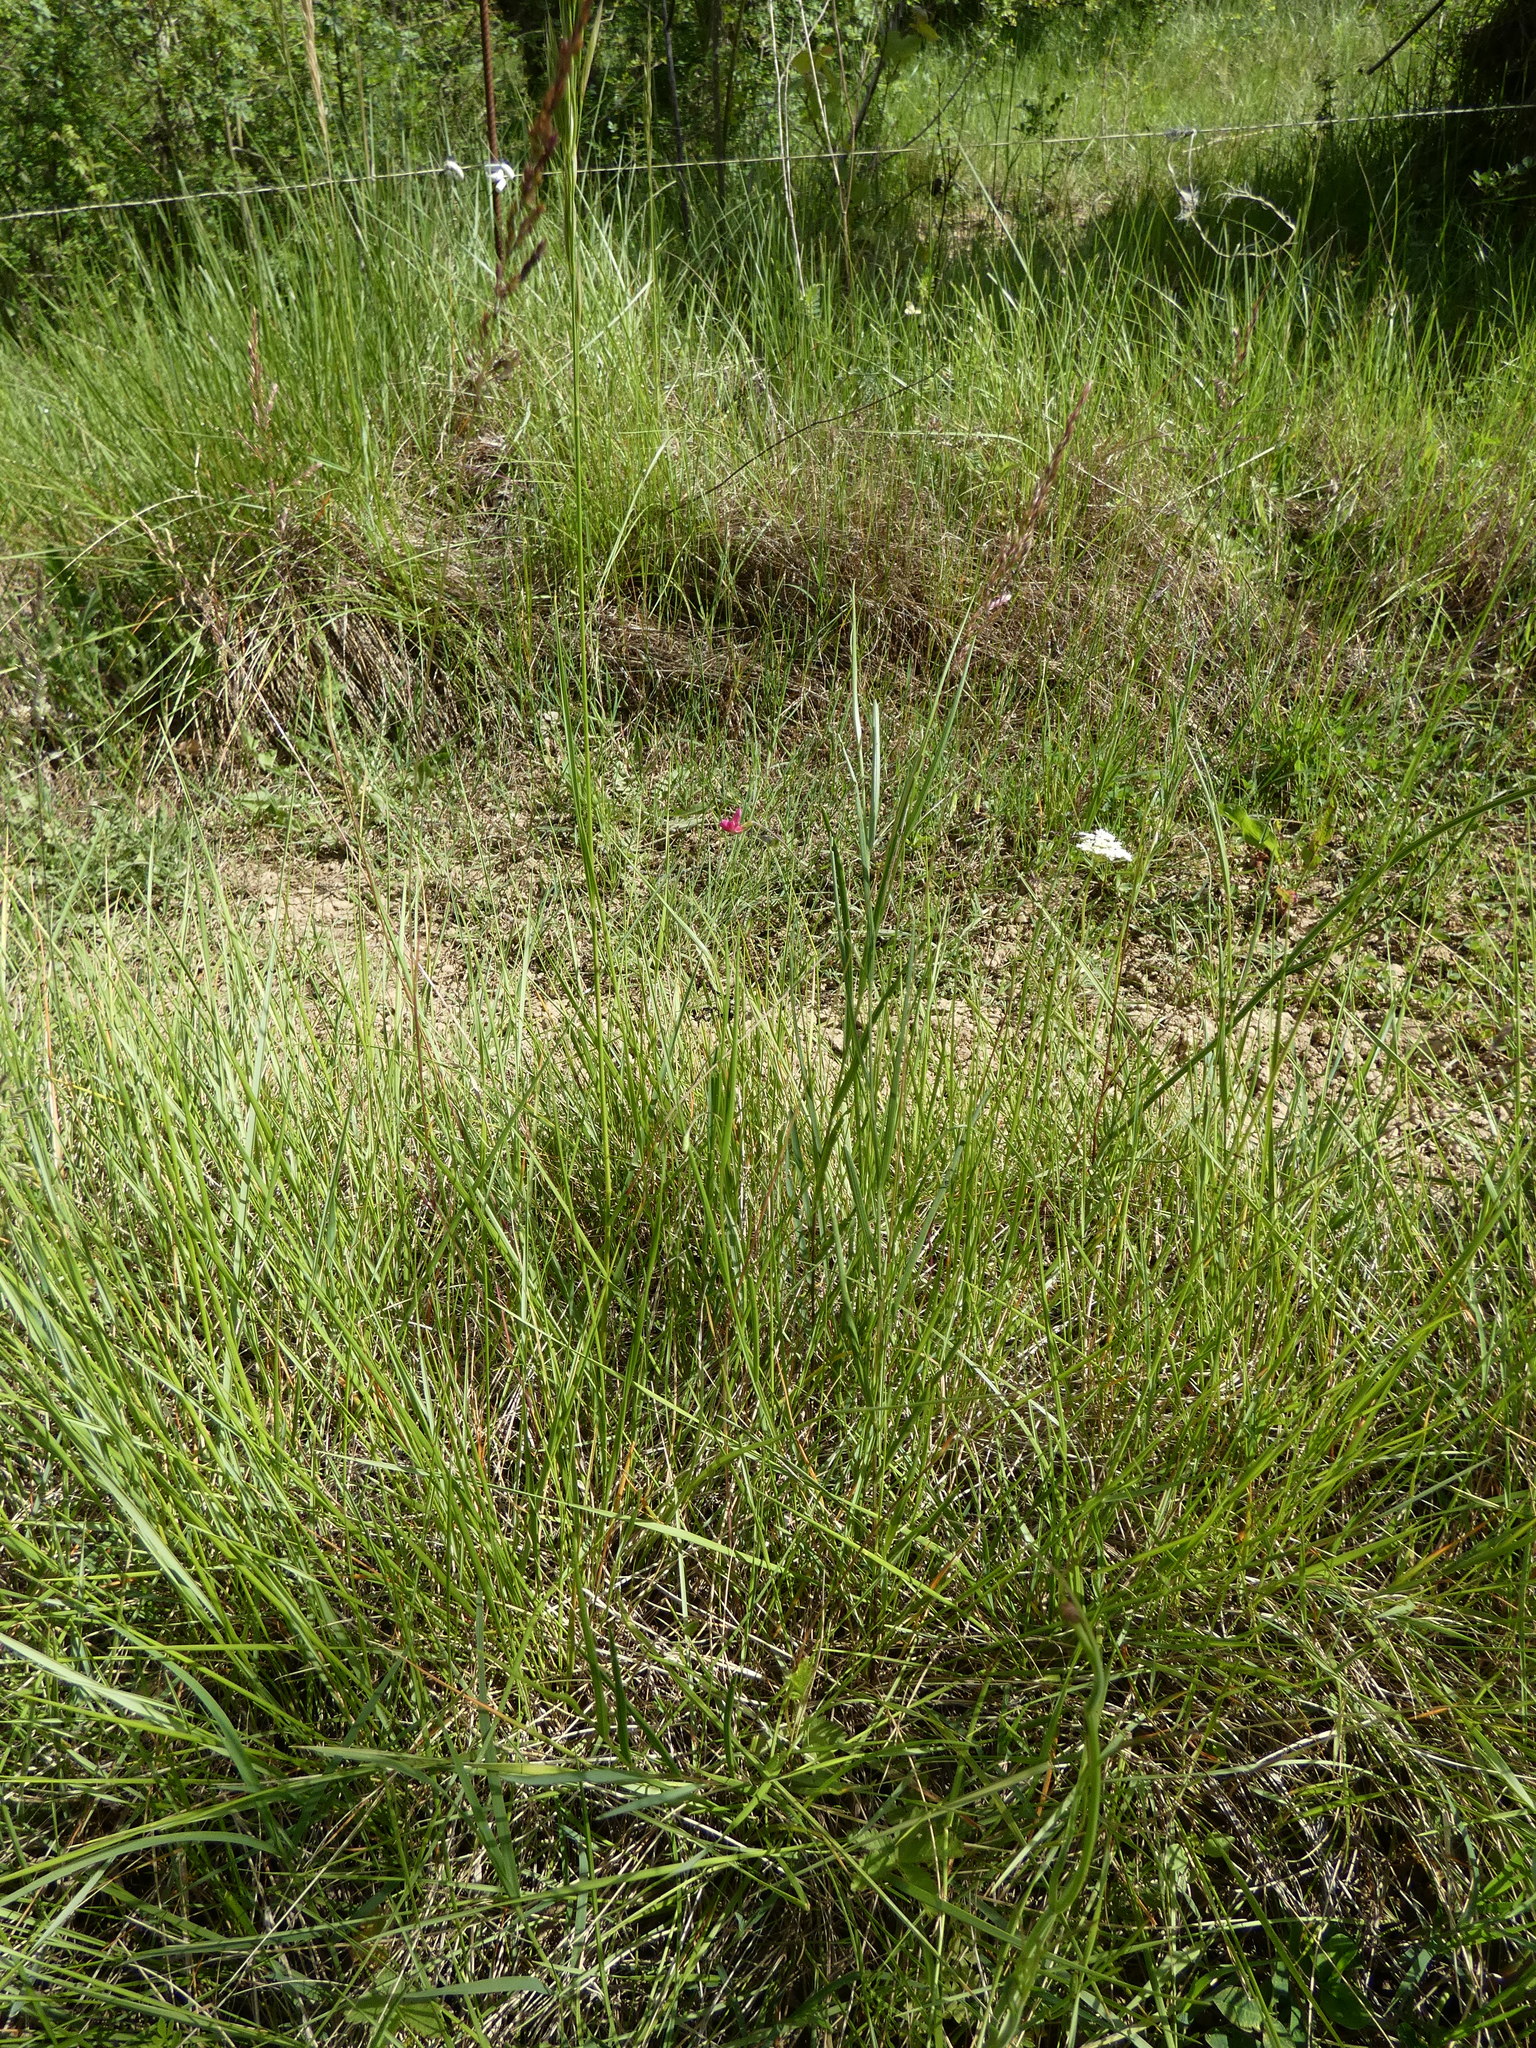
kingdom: Plantae
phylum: Tracheophyta
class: Magnoliopsida
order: Fabales
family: Fabaceae
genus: Lathyrus
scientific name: Lathyrus nissolia
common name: Grass vetchling
